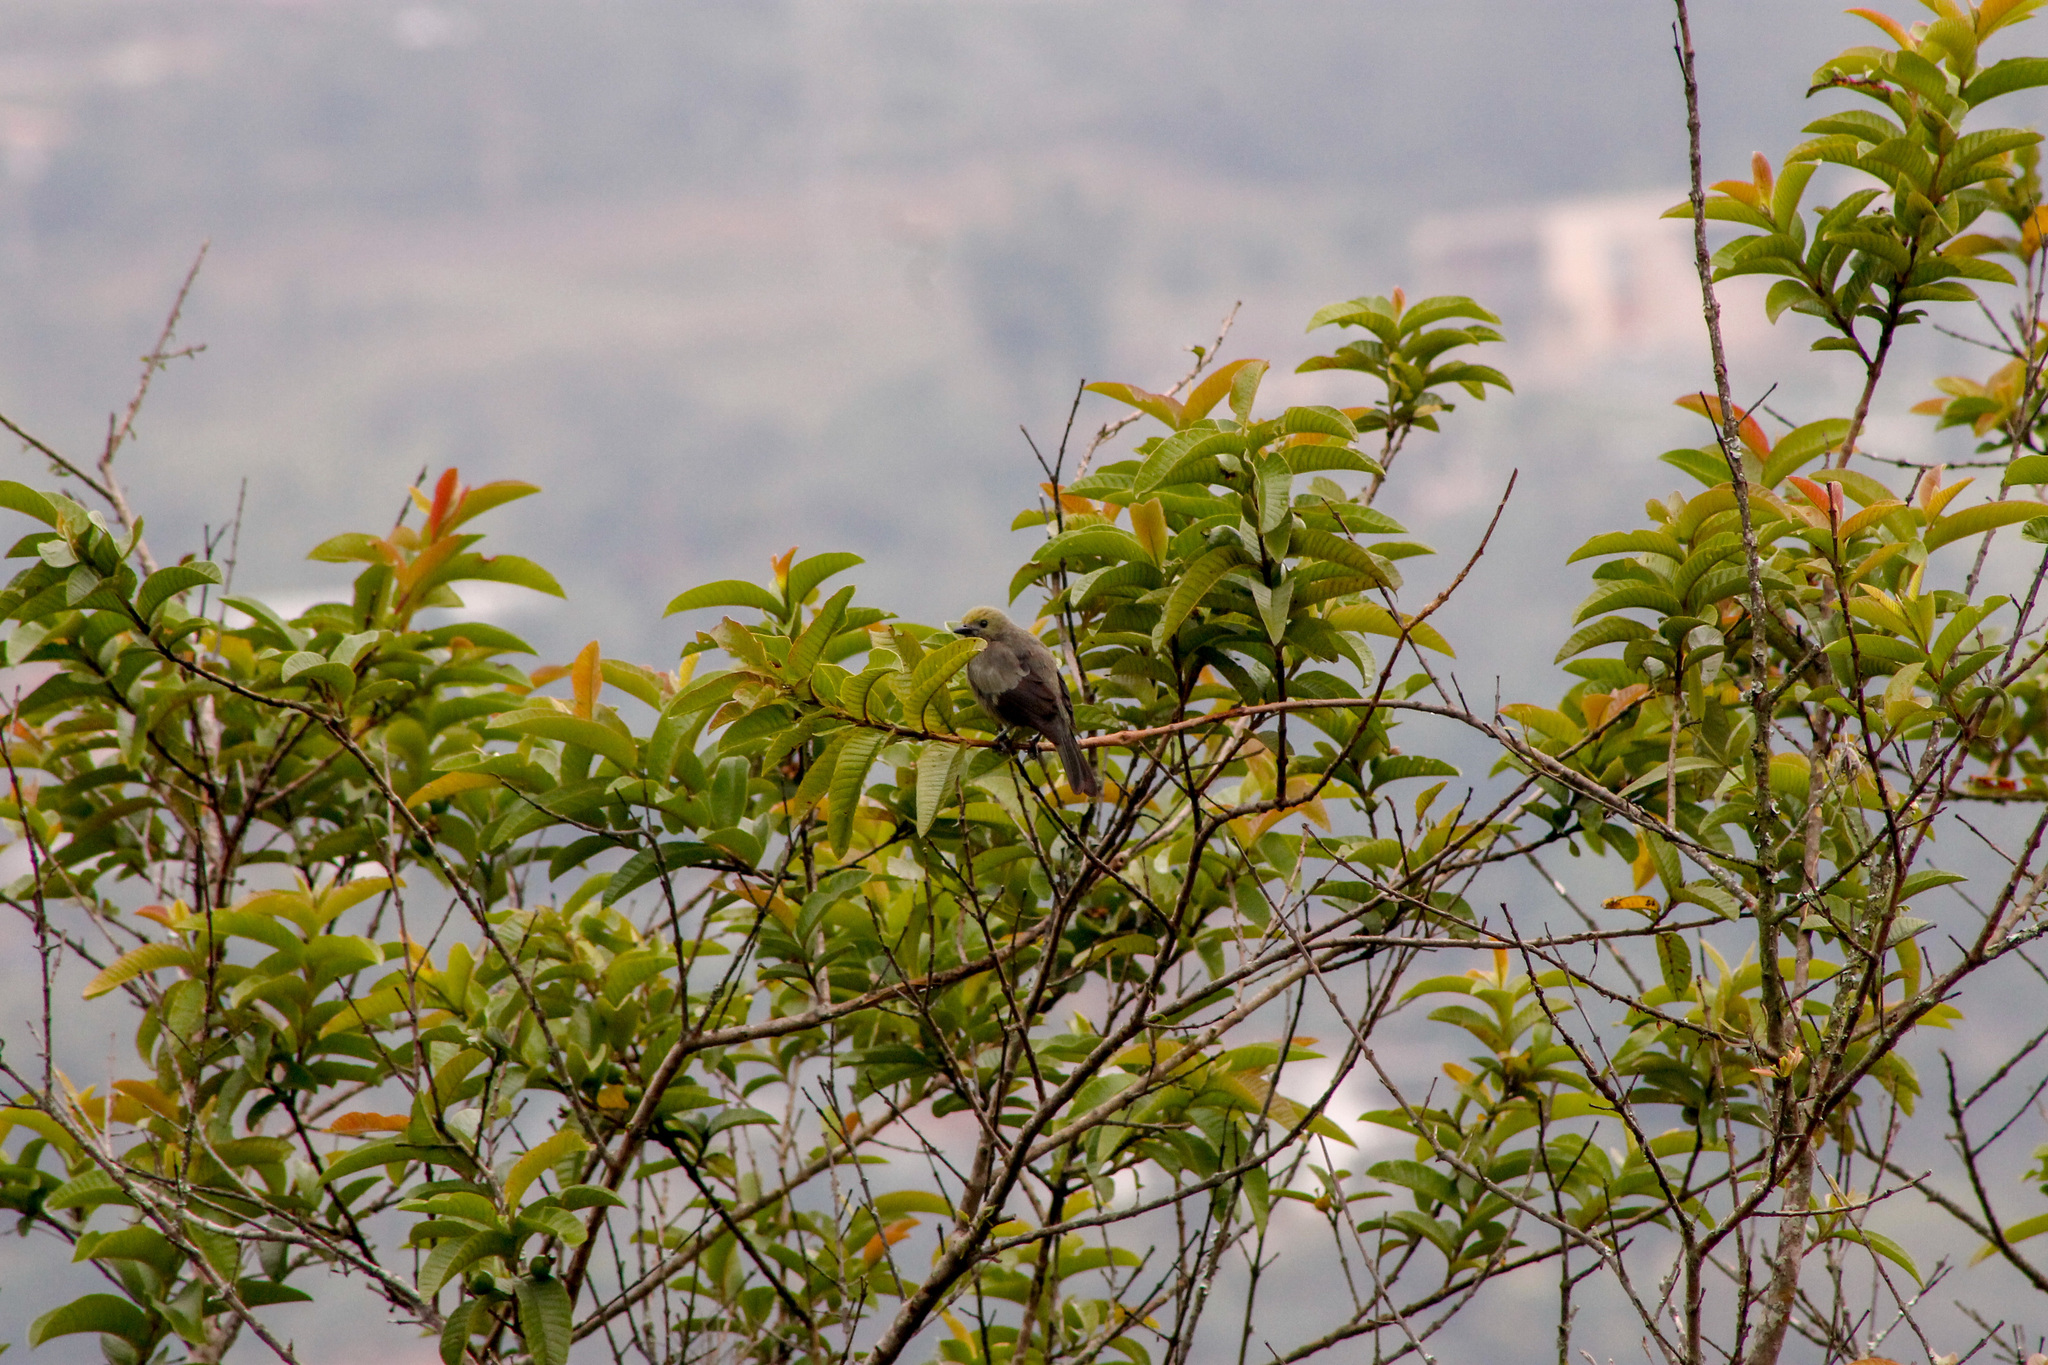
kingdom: Animalia
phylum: Chordata
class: Aves
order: Passeriformes
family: Thraupidae
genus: Thraupis
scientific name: Thraupis palmarum
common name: Palm tanager
